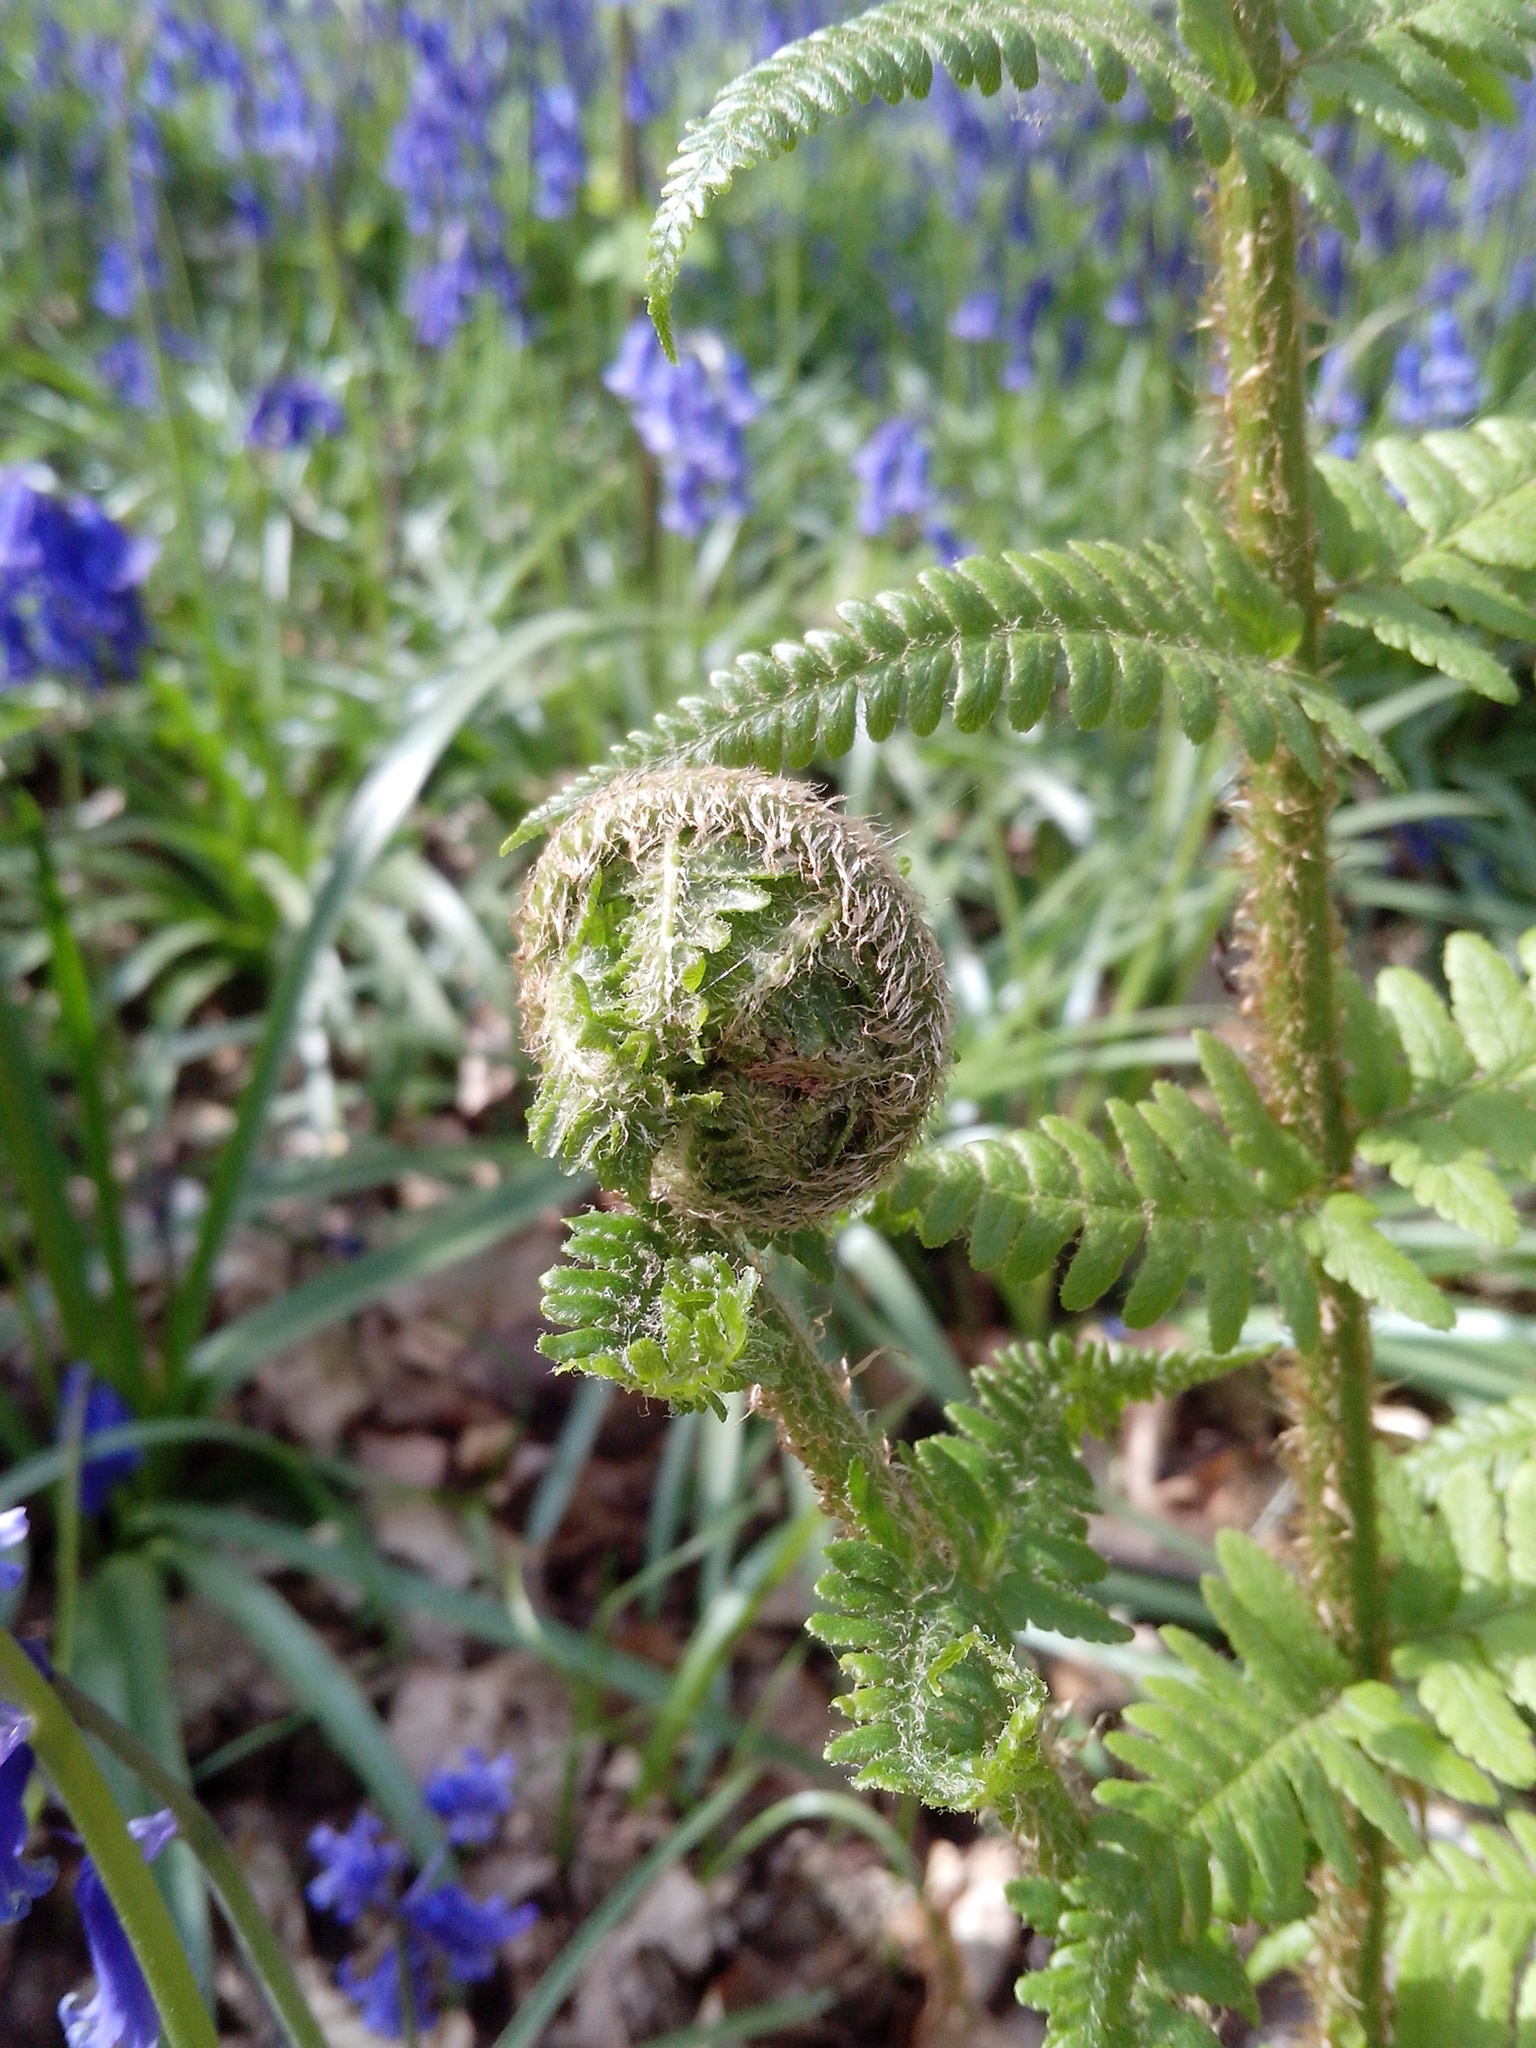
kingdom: Plantae
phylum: Tracheophyta
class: Polypodiopsida
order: Polypodiales
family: Dryopteridaceae
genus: Dryopteris
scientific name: Dryopteris filix-mas
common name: Male fern
